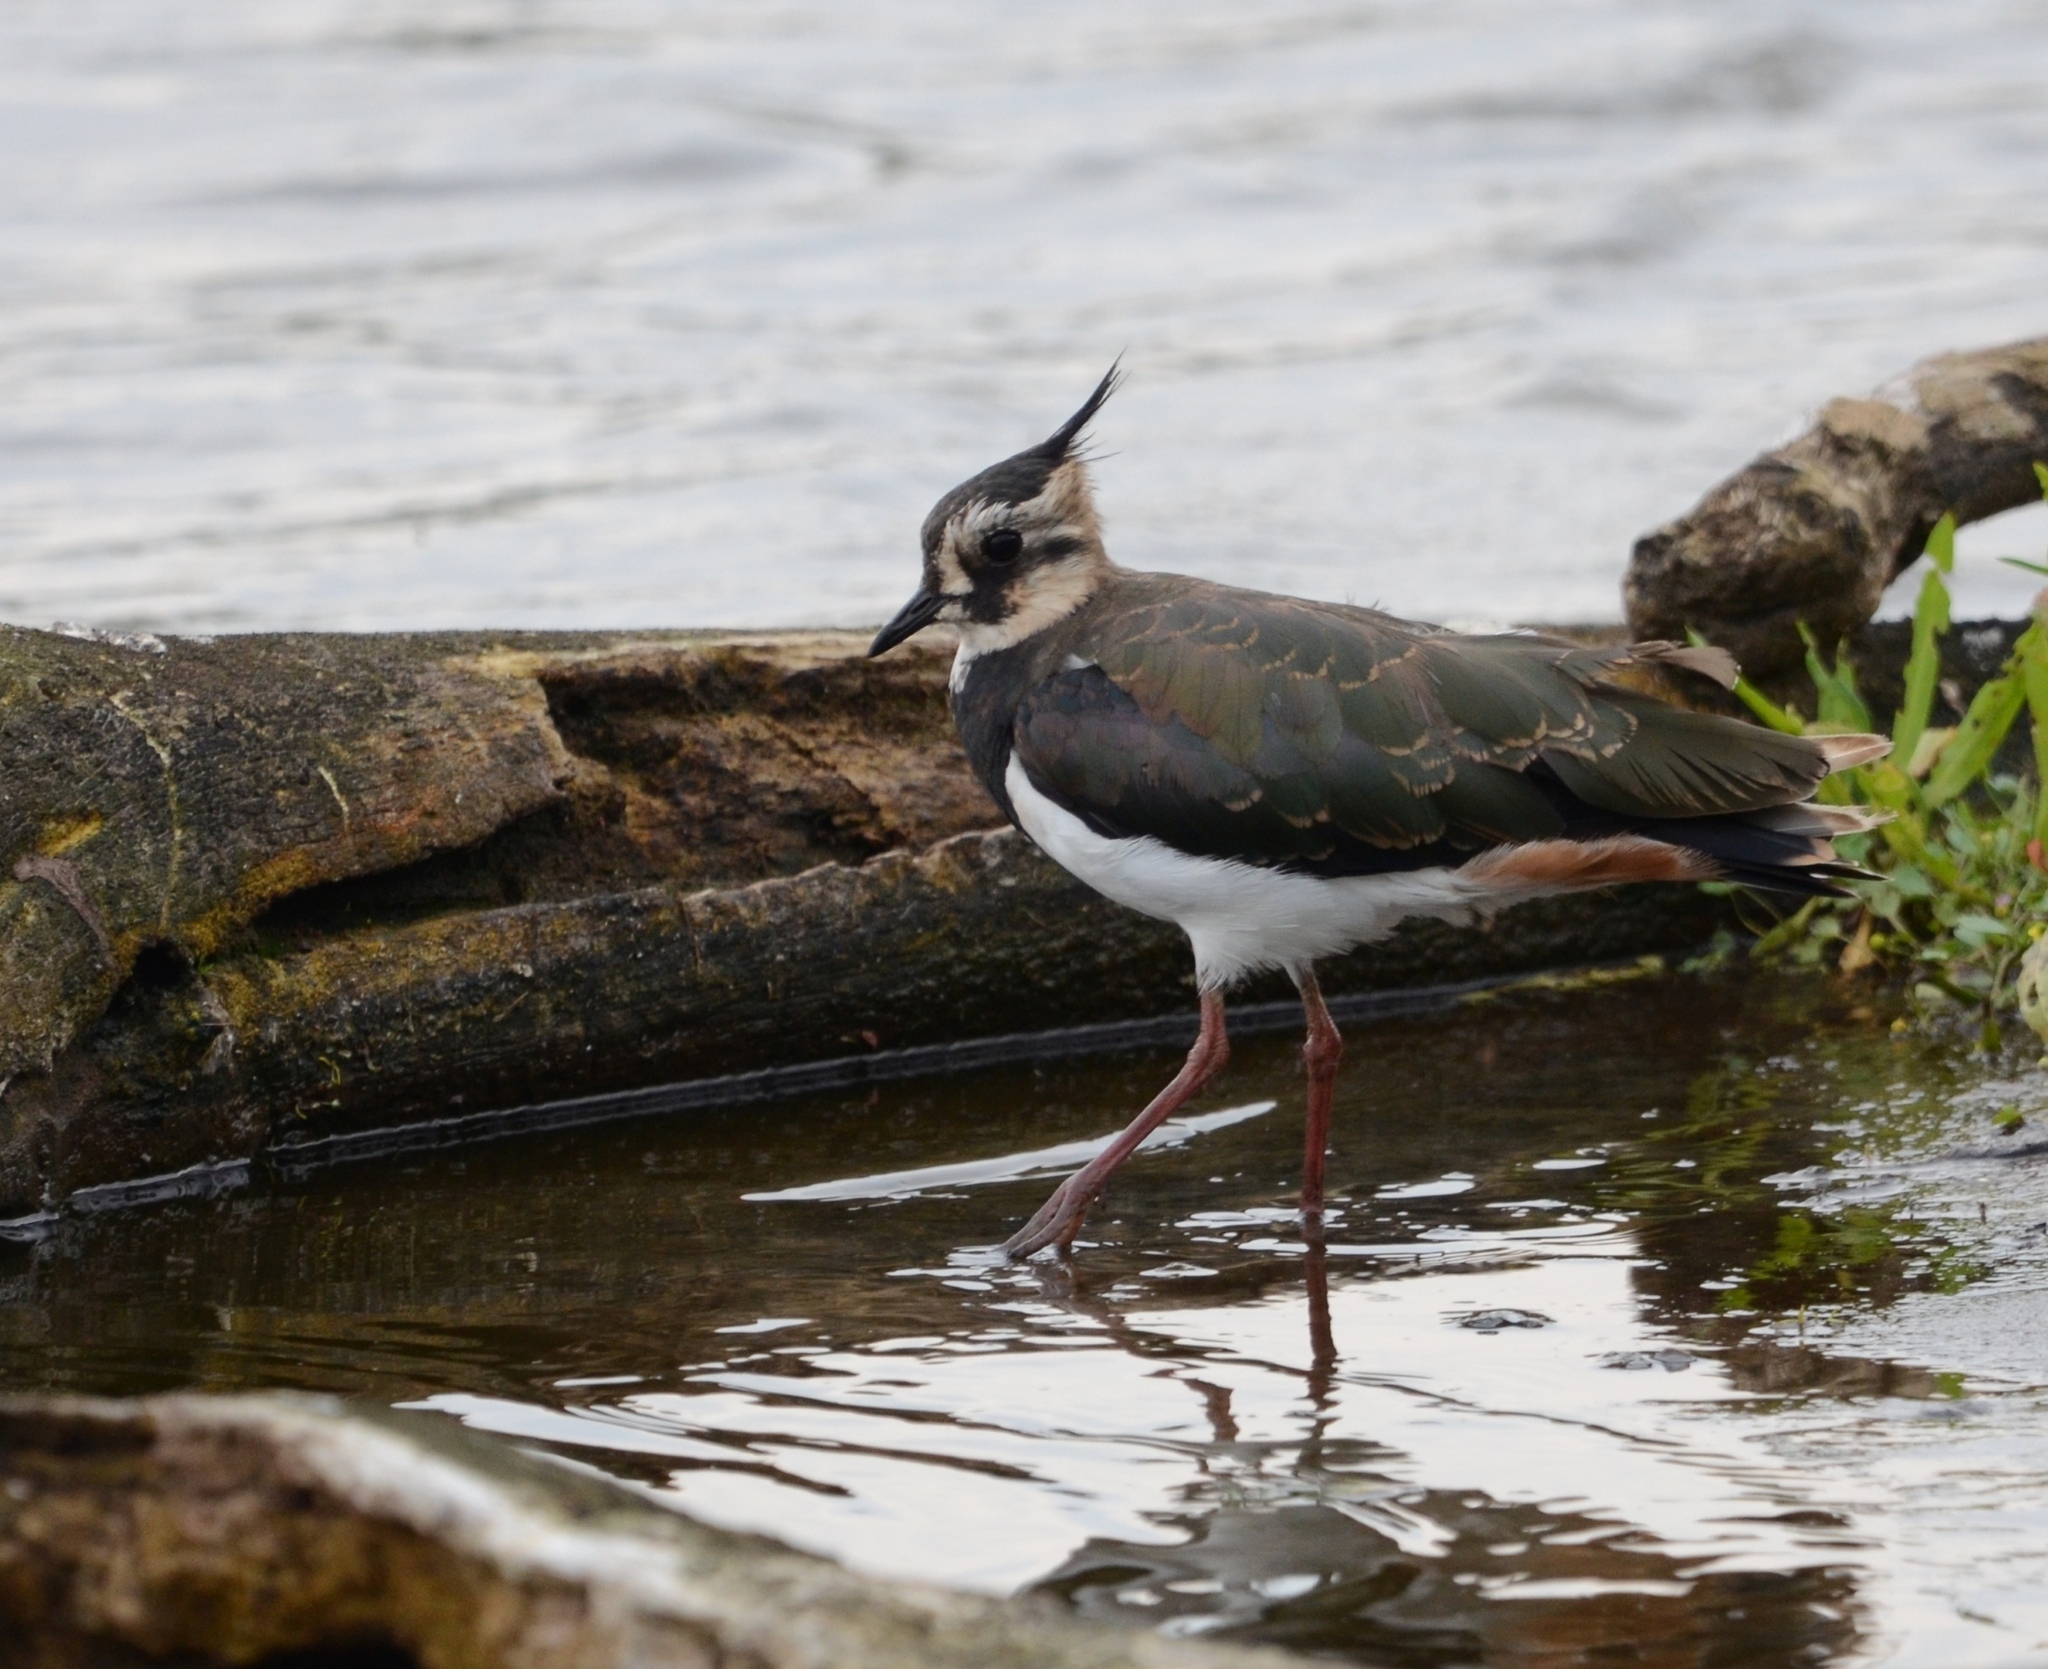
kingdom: Animalia
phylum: Chordata
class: Aves
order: Charadriiformes
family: Charadriidae
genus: Vanellus
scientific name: Vanellus vanellus
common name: Northern lapwing
